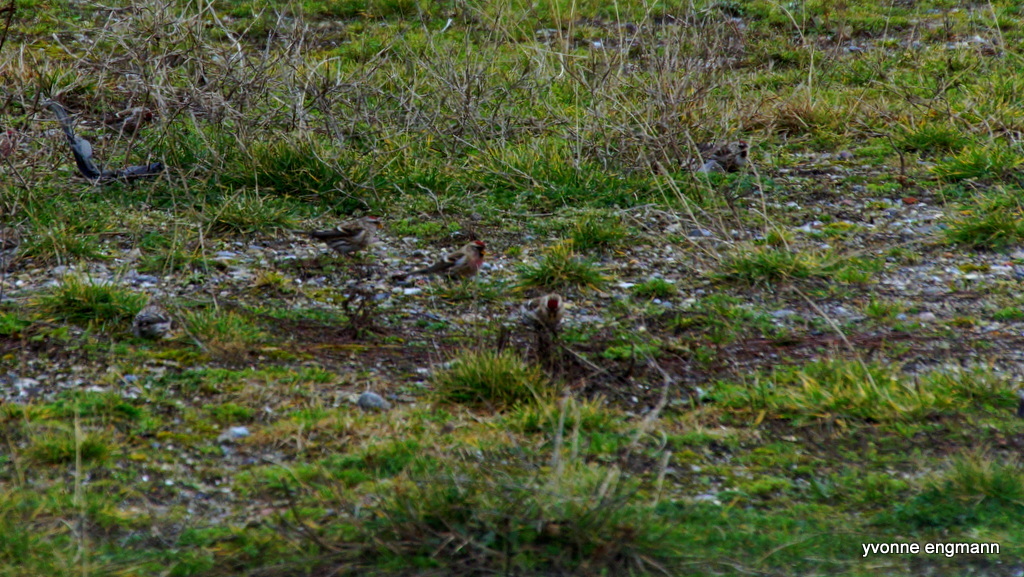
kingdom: Animalia
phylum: Chordata
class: Aves
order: Passeriformes
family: Fringillidae
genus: Acanthis
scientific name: Acanthis flammea
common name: Common redpoll
